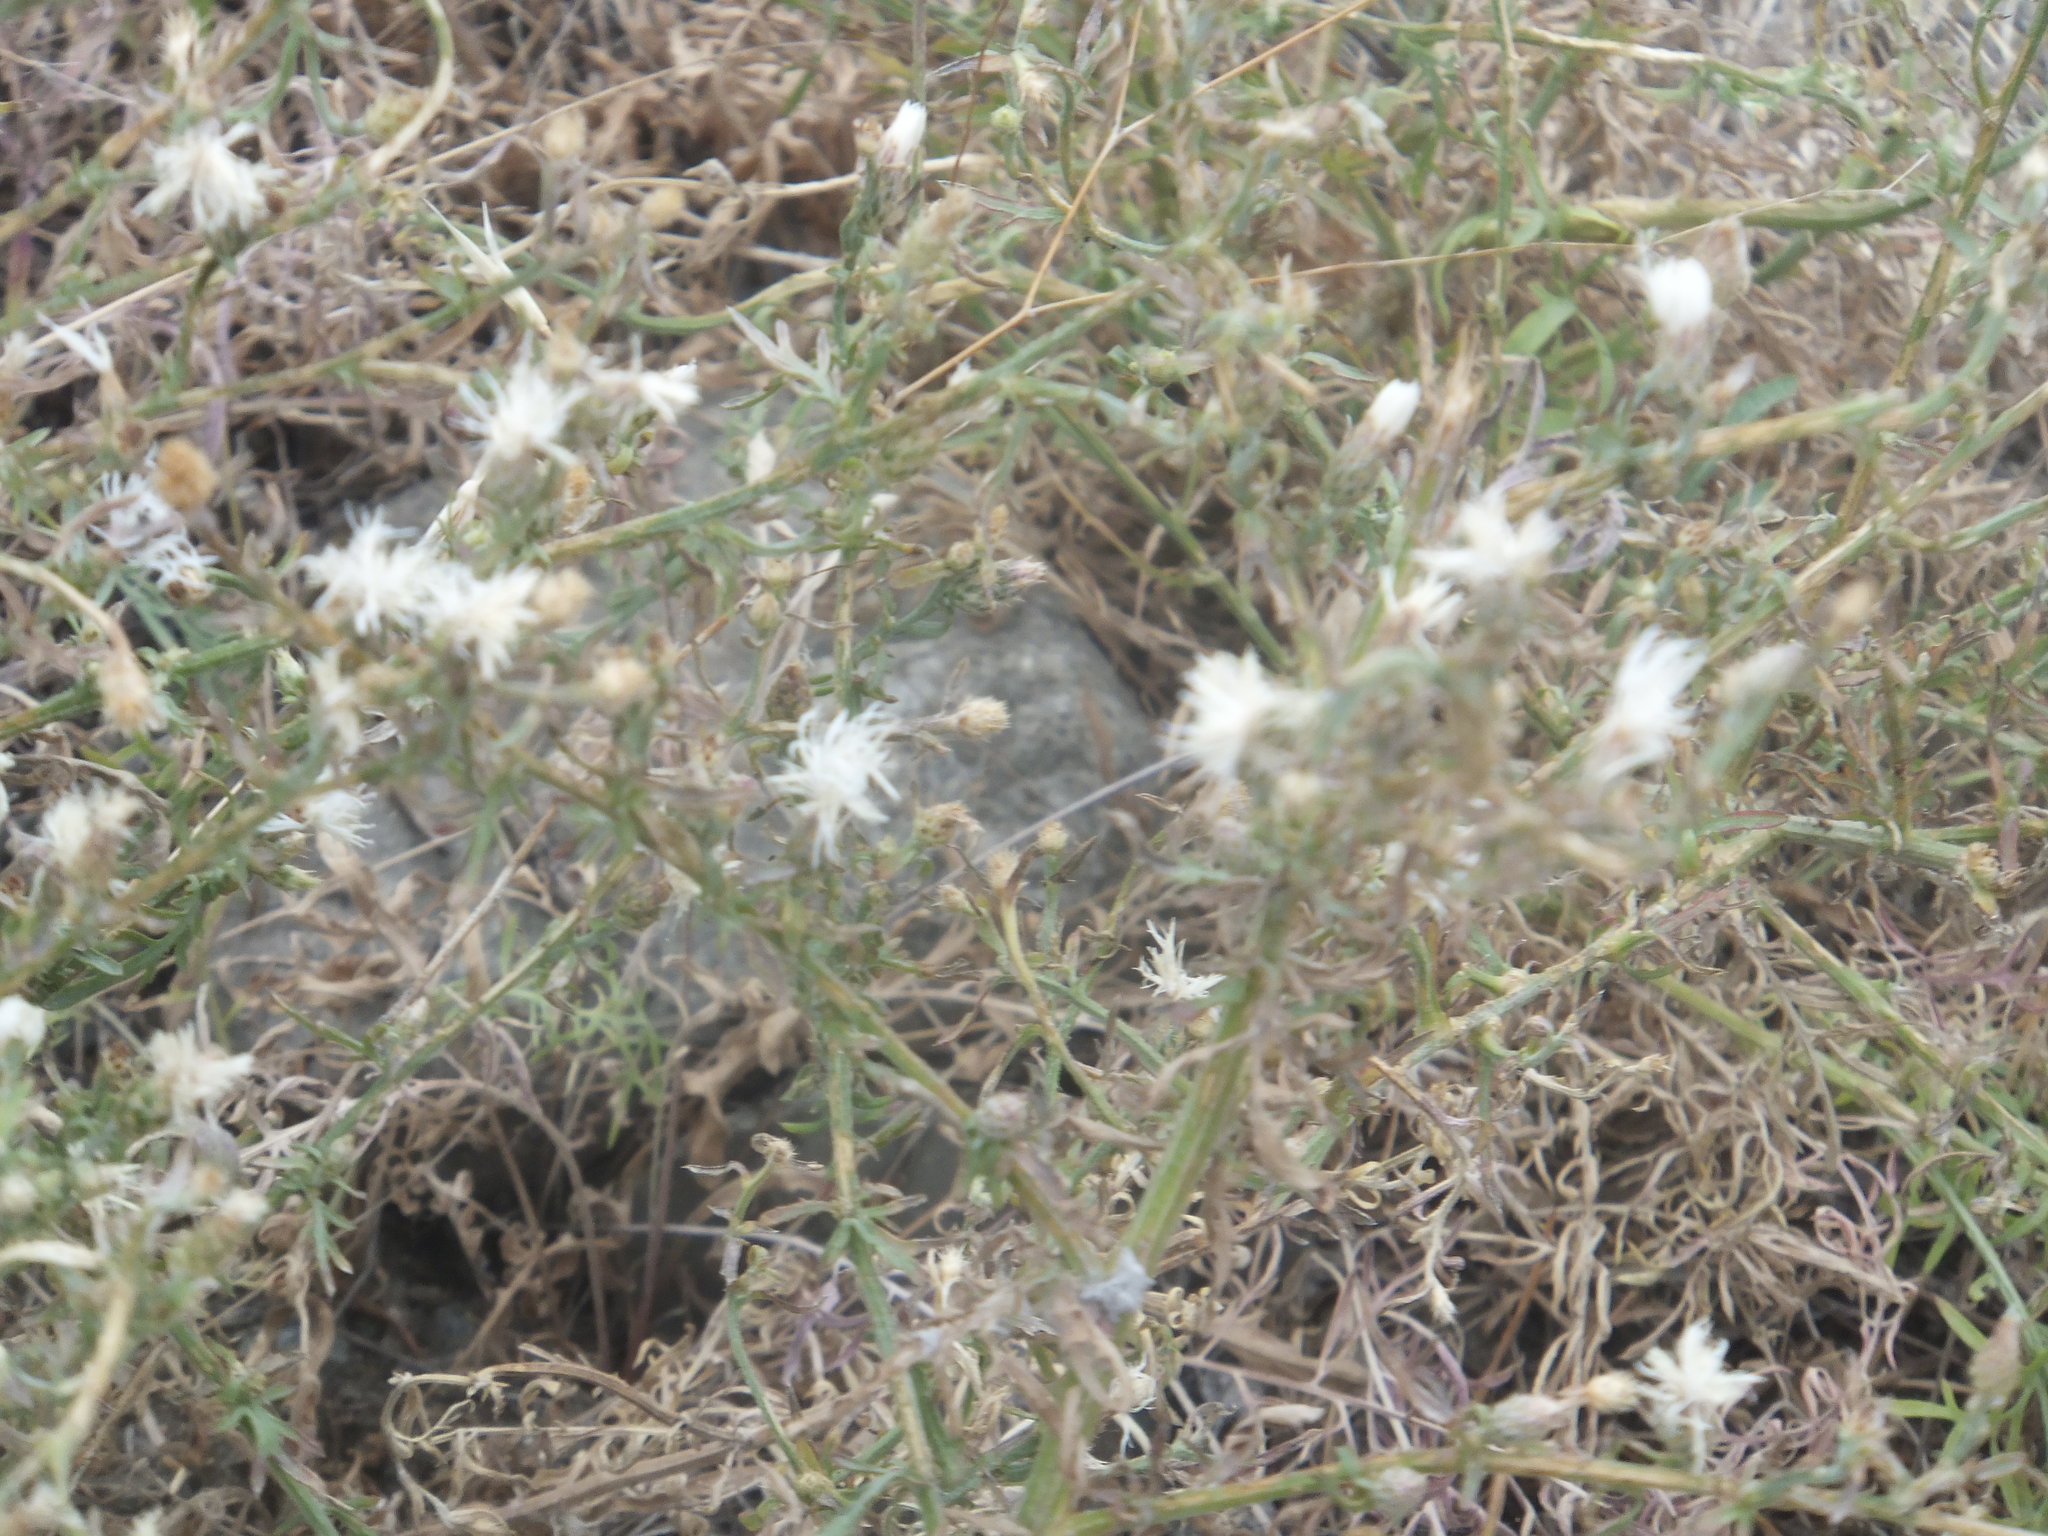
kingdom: Plantae
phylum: Tracheophyta
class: Magnoliopsida
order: Asterales
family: Asteraceae
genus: Centaurea
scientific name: Centaurea diffusa
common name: Diffuse knapweed
